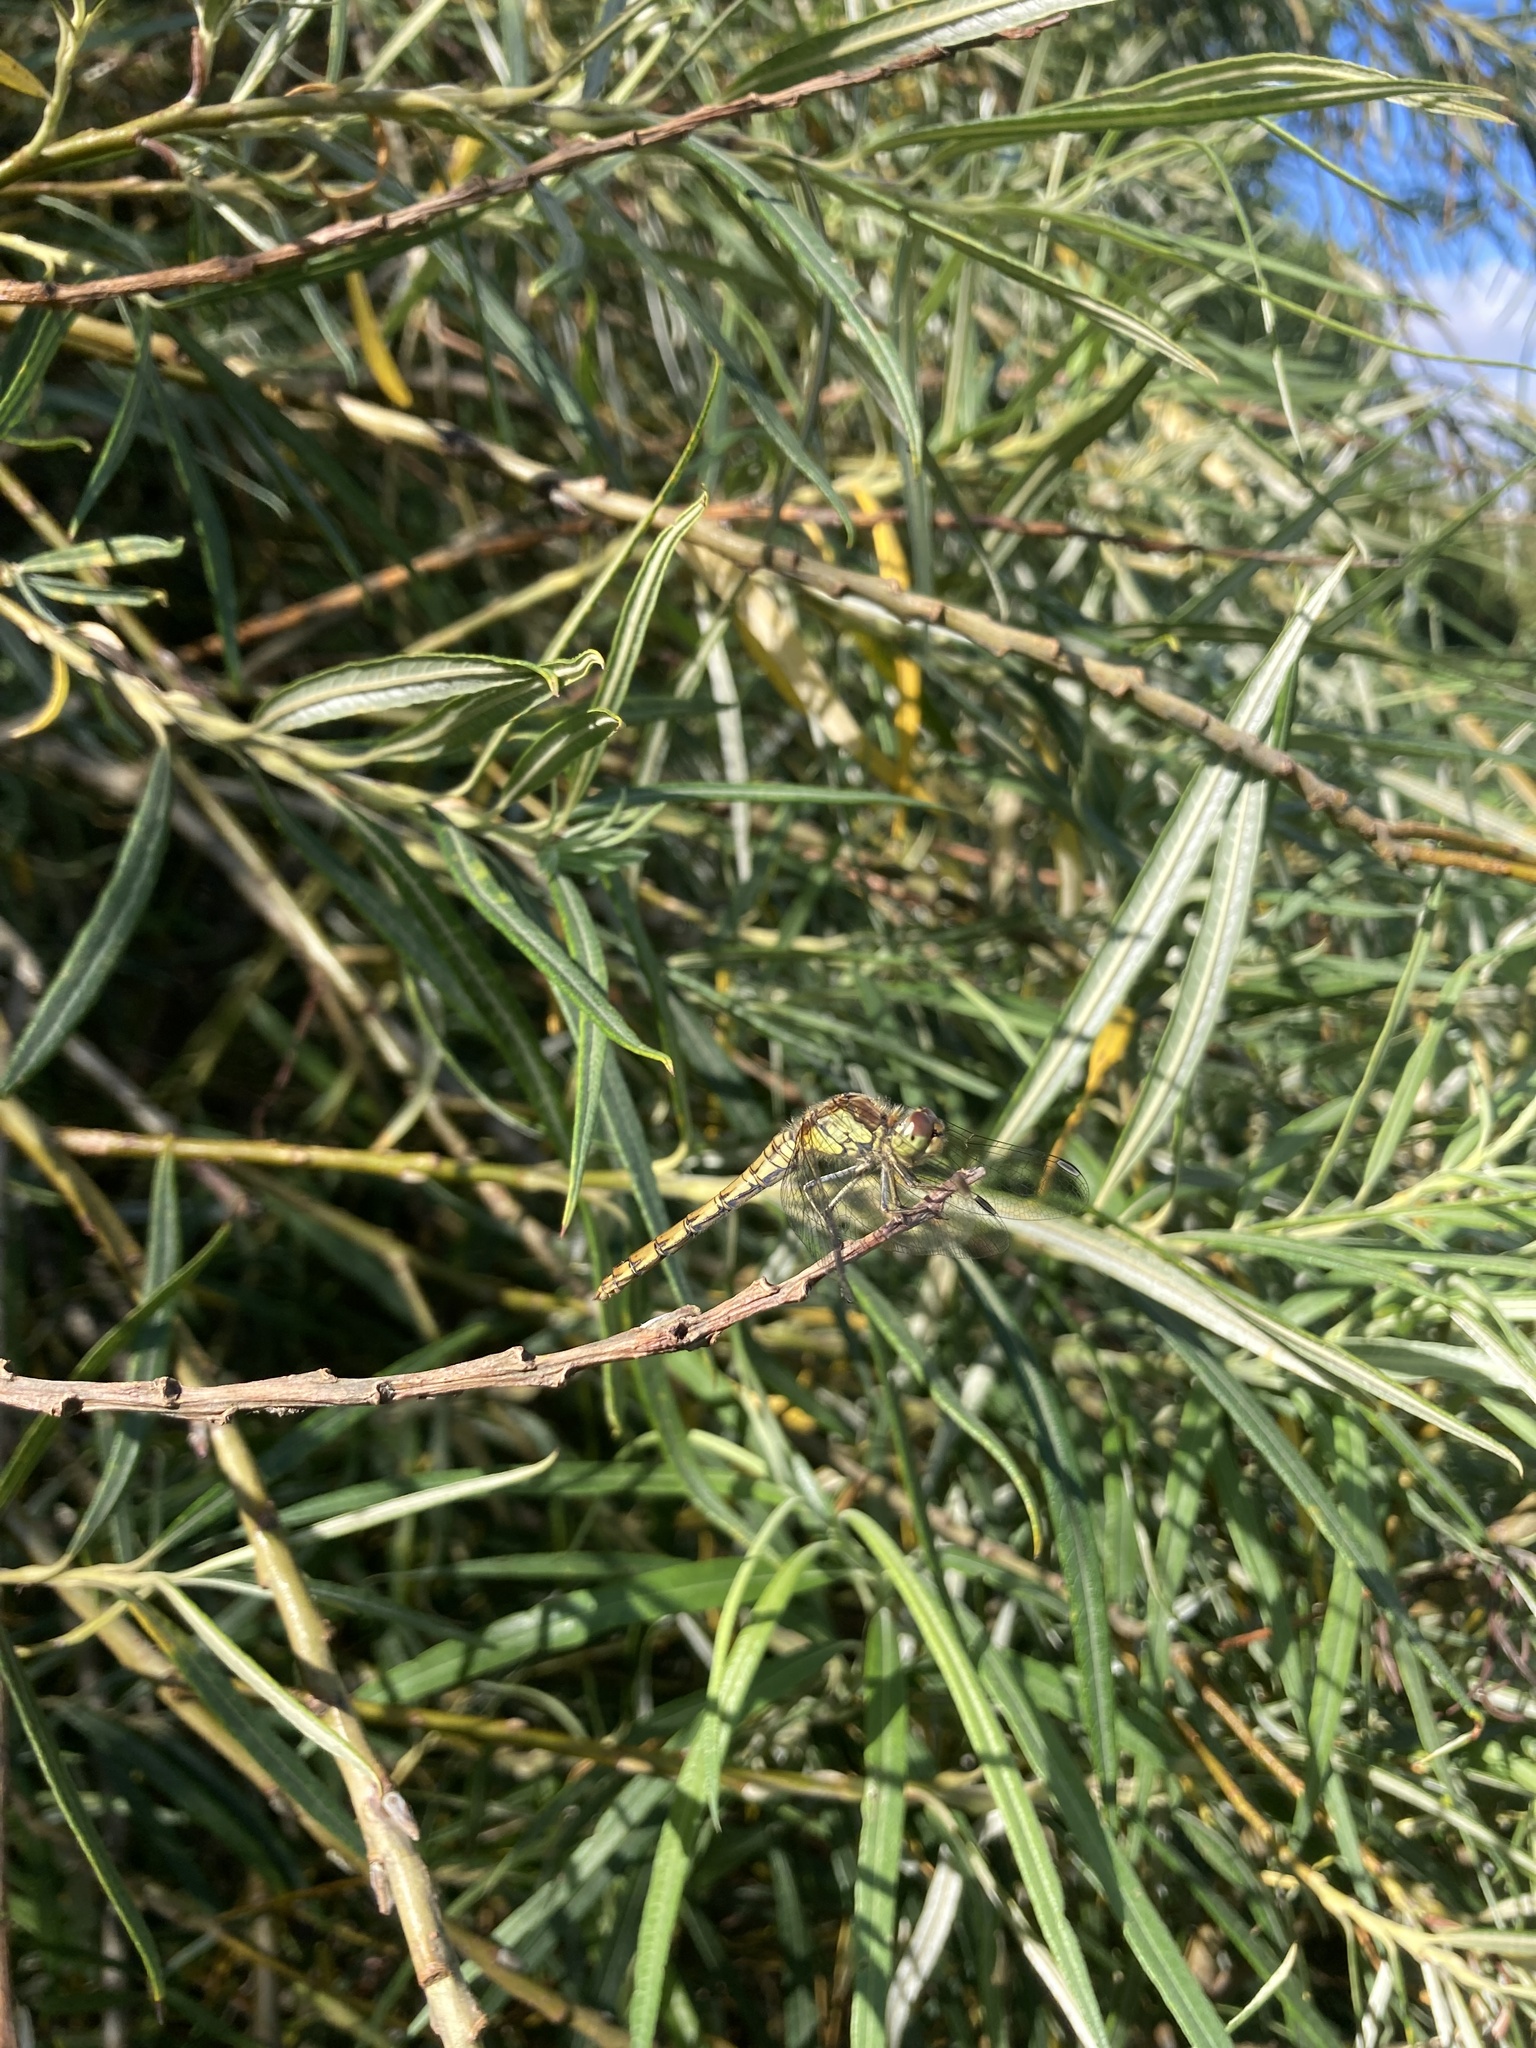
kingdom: Animalia
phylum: Arthropoda
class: Insecta
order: Odonata
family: Libellulidae
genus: Sympetrum
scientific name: Sympetrum striolatum
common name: Common darter
